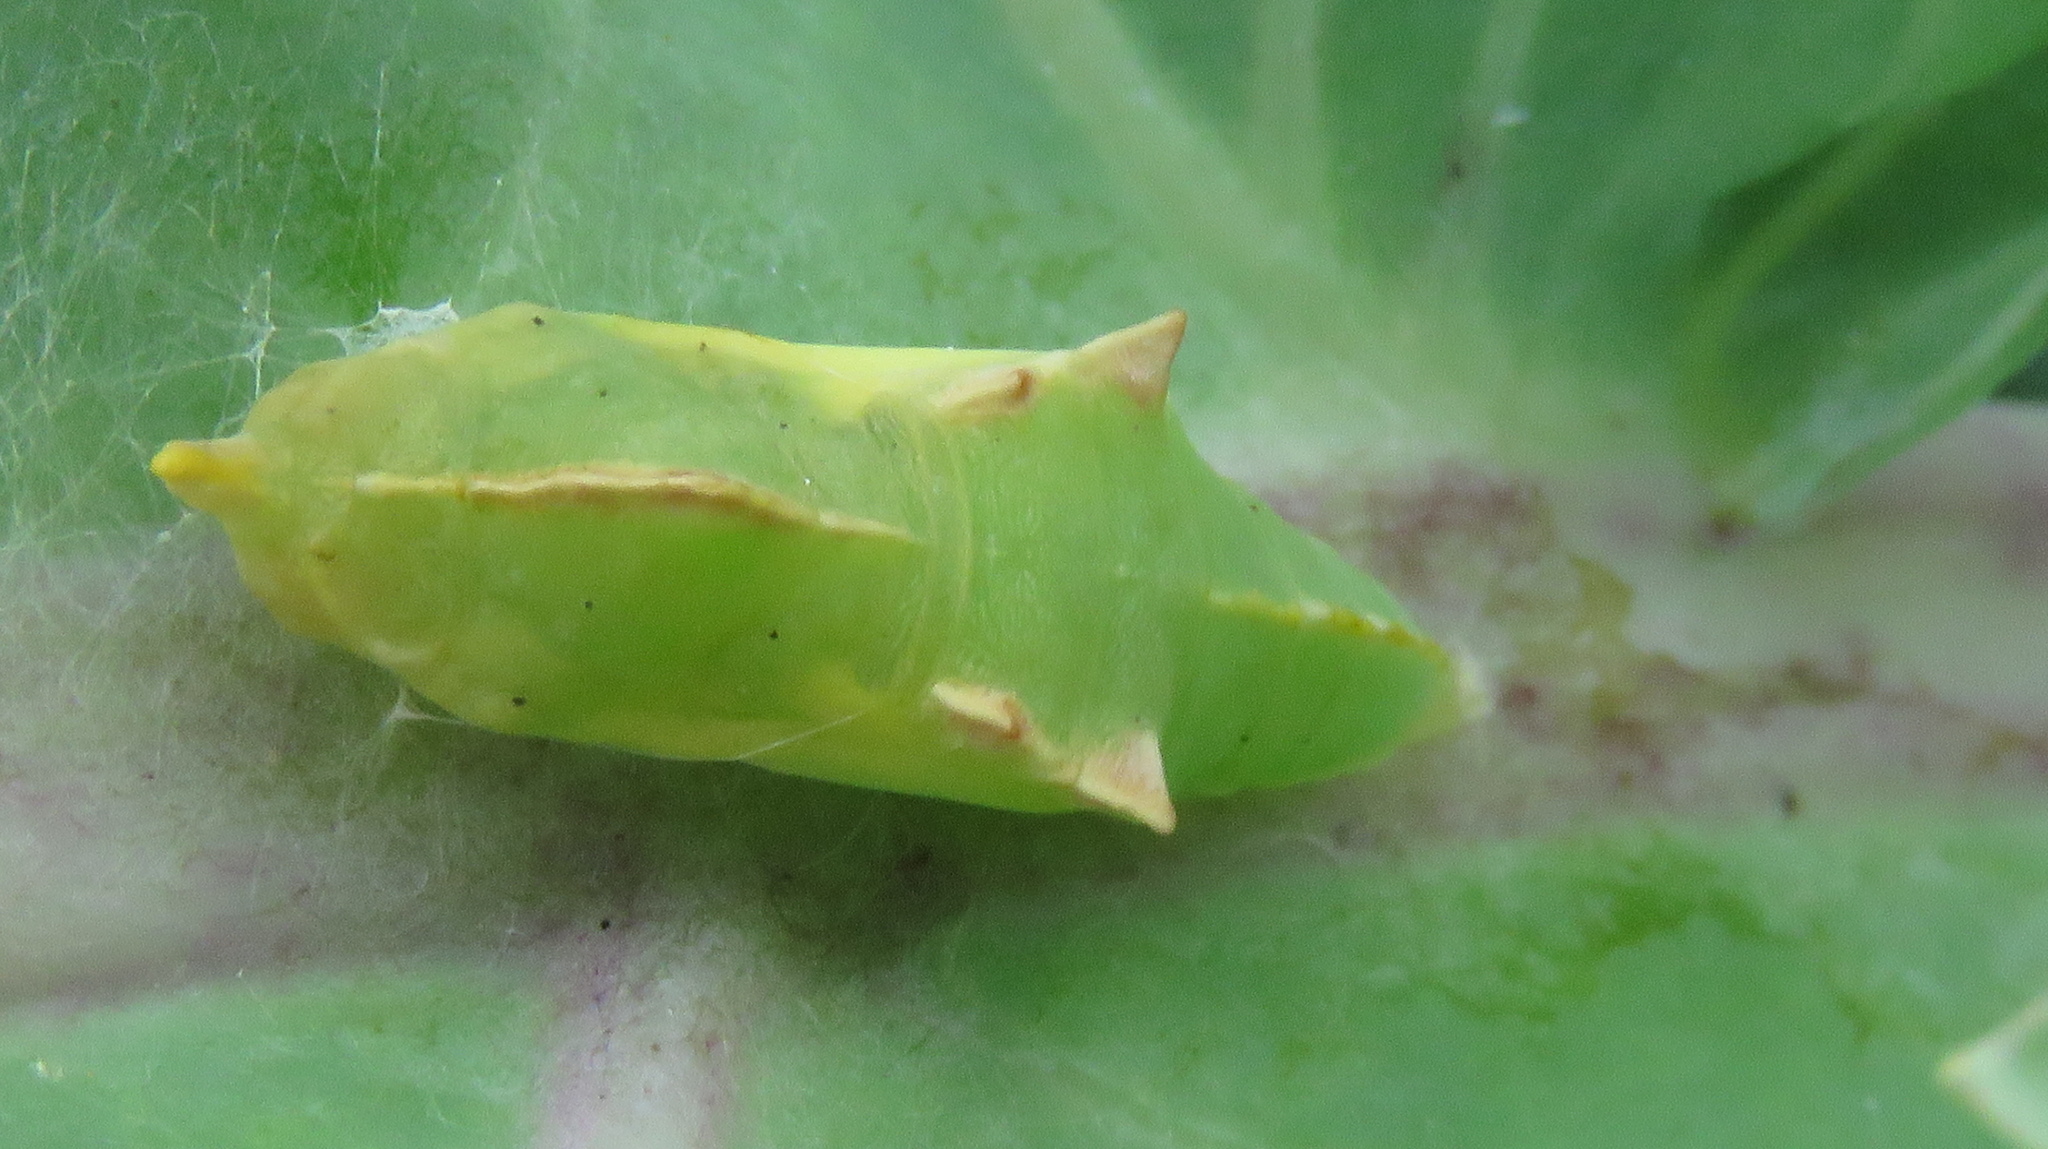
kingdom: Animalia
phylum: Arthropoda
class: Insecta
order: Lepidoptera
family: Pieridae
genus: Pieris
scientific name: Pieris rapae
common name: Small white
